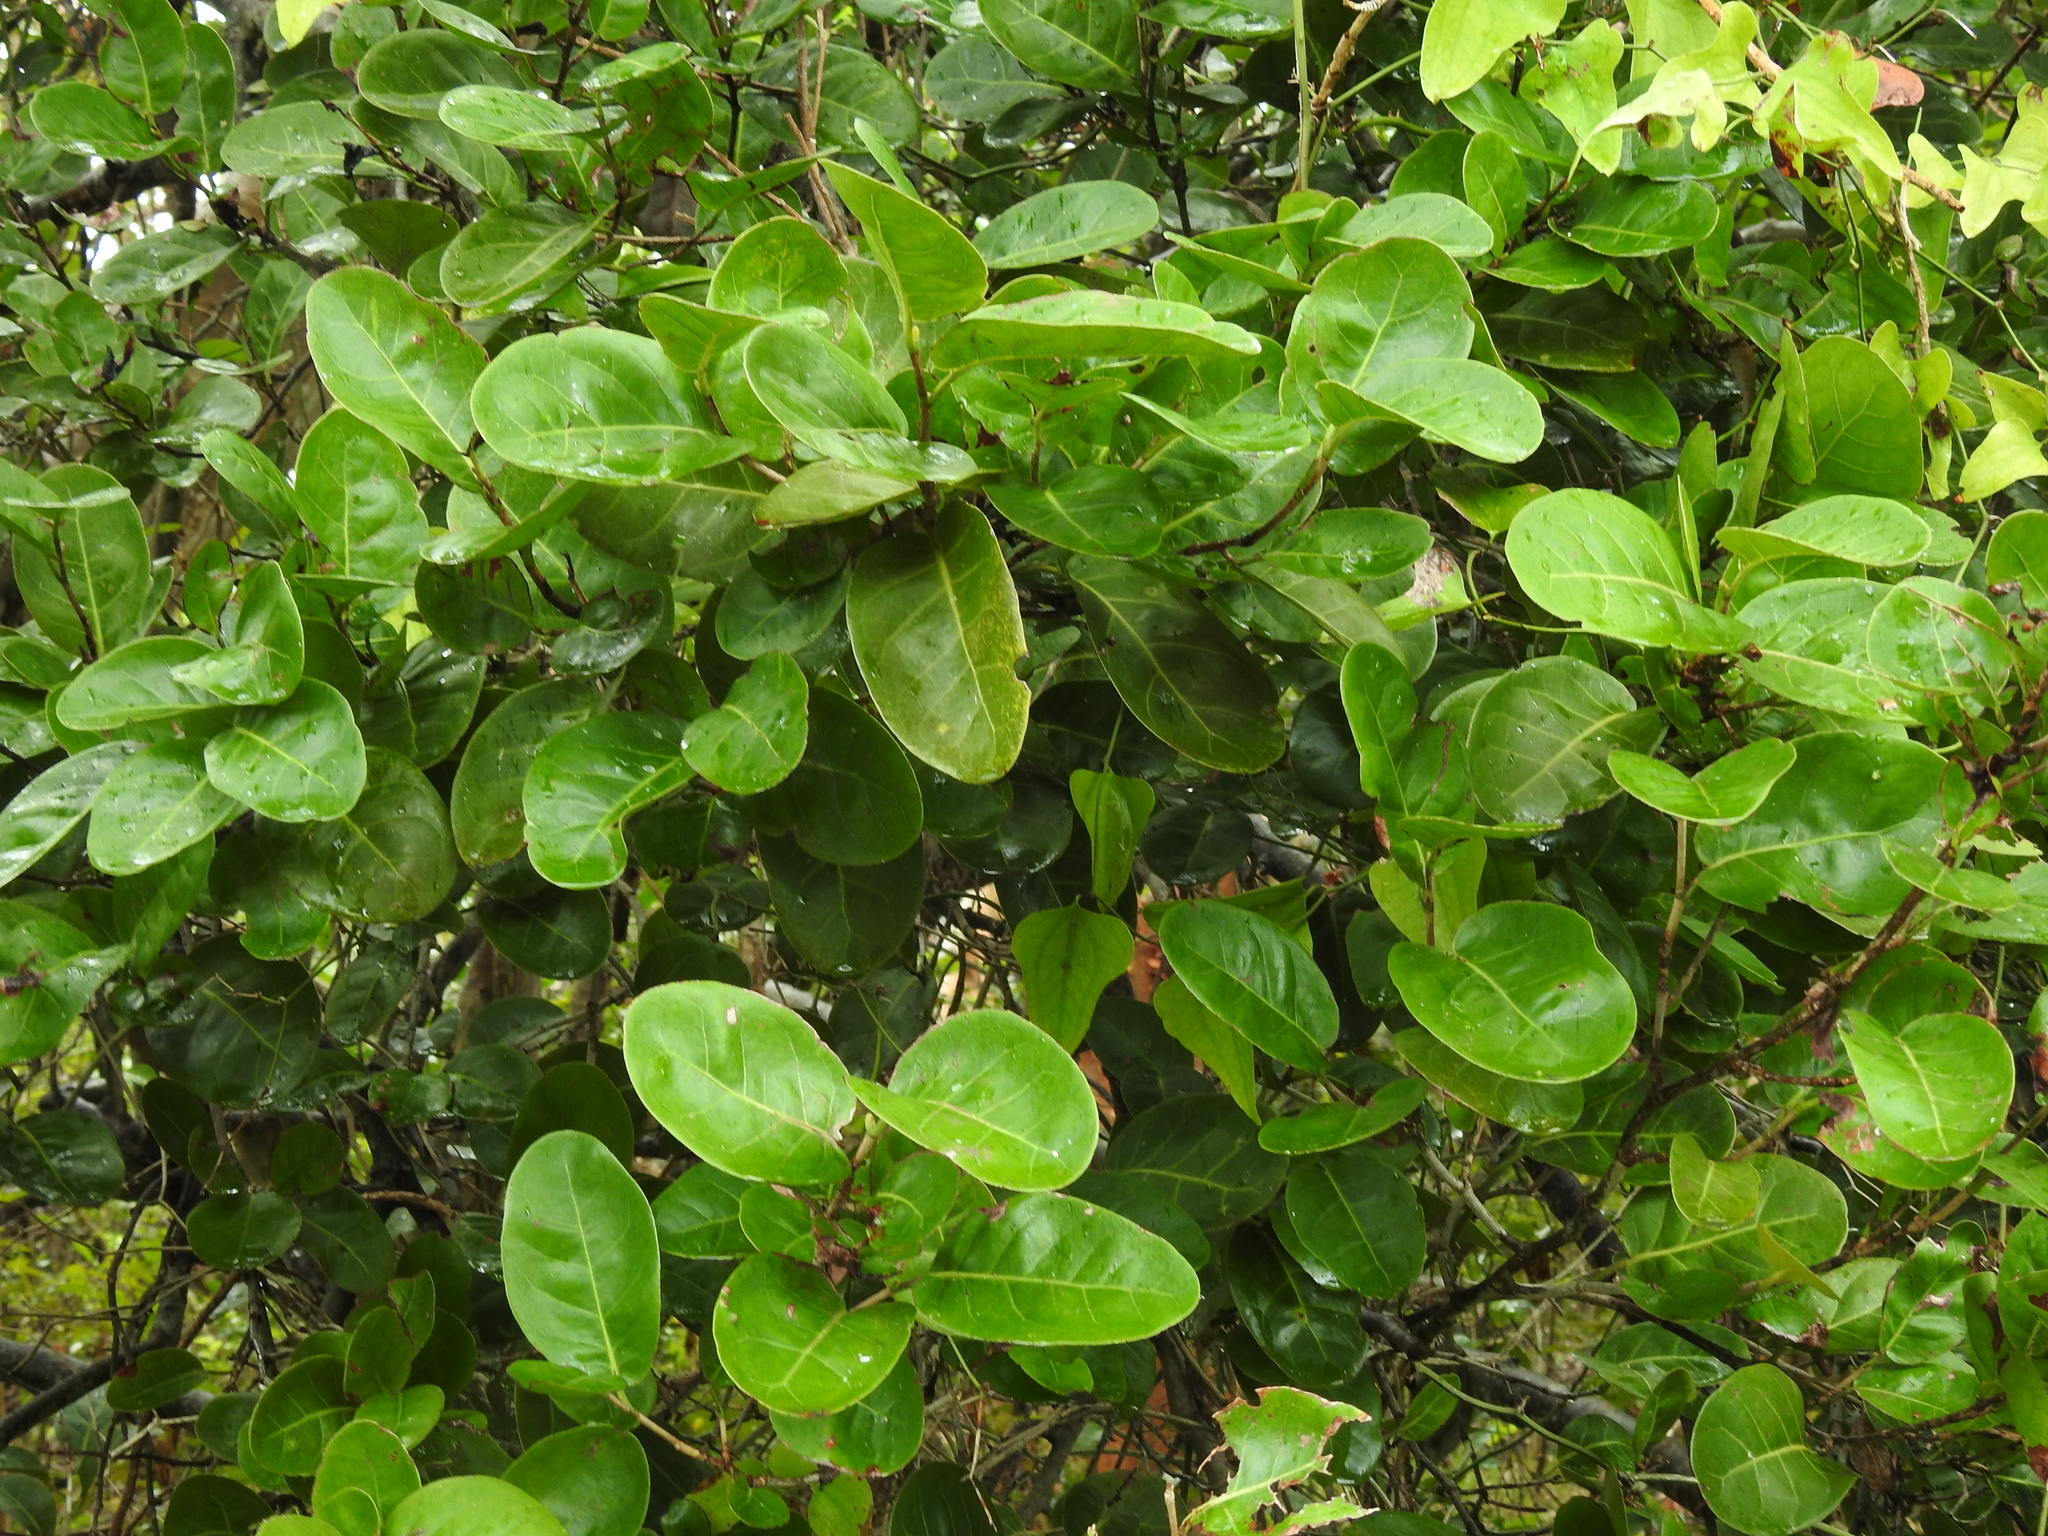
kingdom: Plantae
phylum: Tracheophyta
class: Magnoliopsida
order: Caryophyllales
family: Polygonaceae
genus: Coccoloba
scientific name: Coccoloba diversifolia
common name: Pigeon-plum
